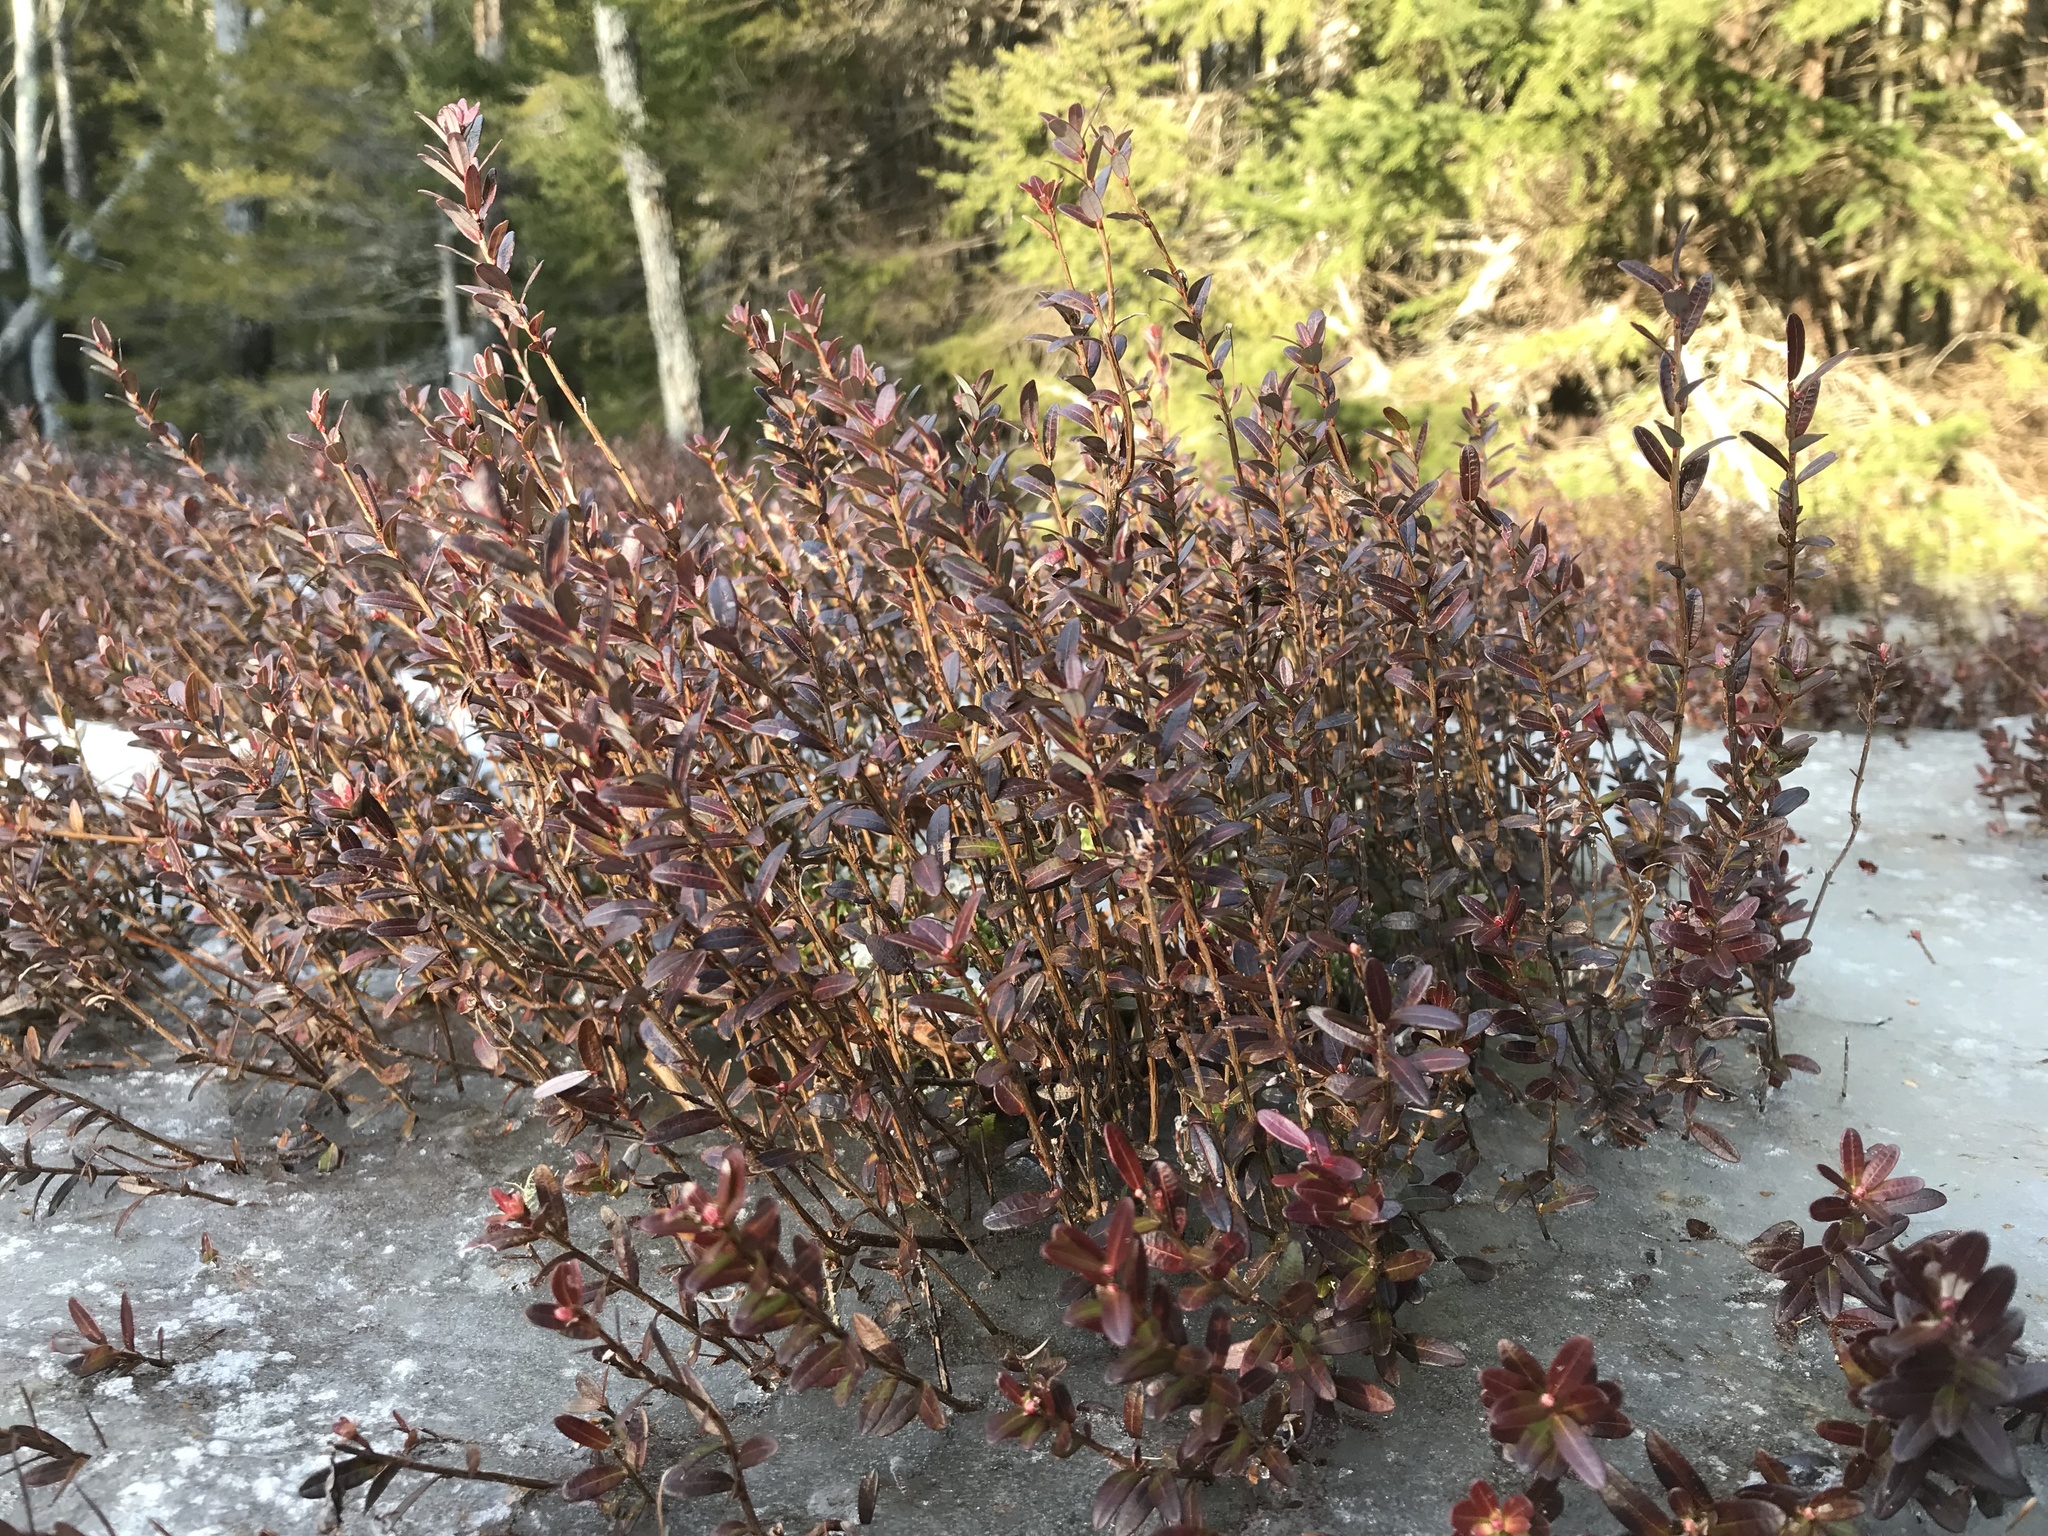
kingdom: Plantae
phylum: Tracheophyta
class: Magnoliopsida
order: Ericales
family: Ericaceae
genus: Vaccinium
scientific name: Vaccinium macrocarpon
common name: American cranberry
